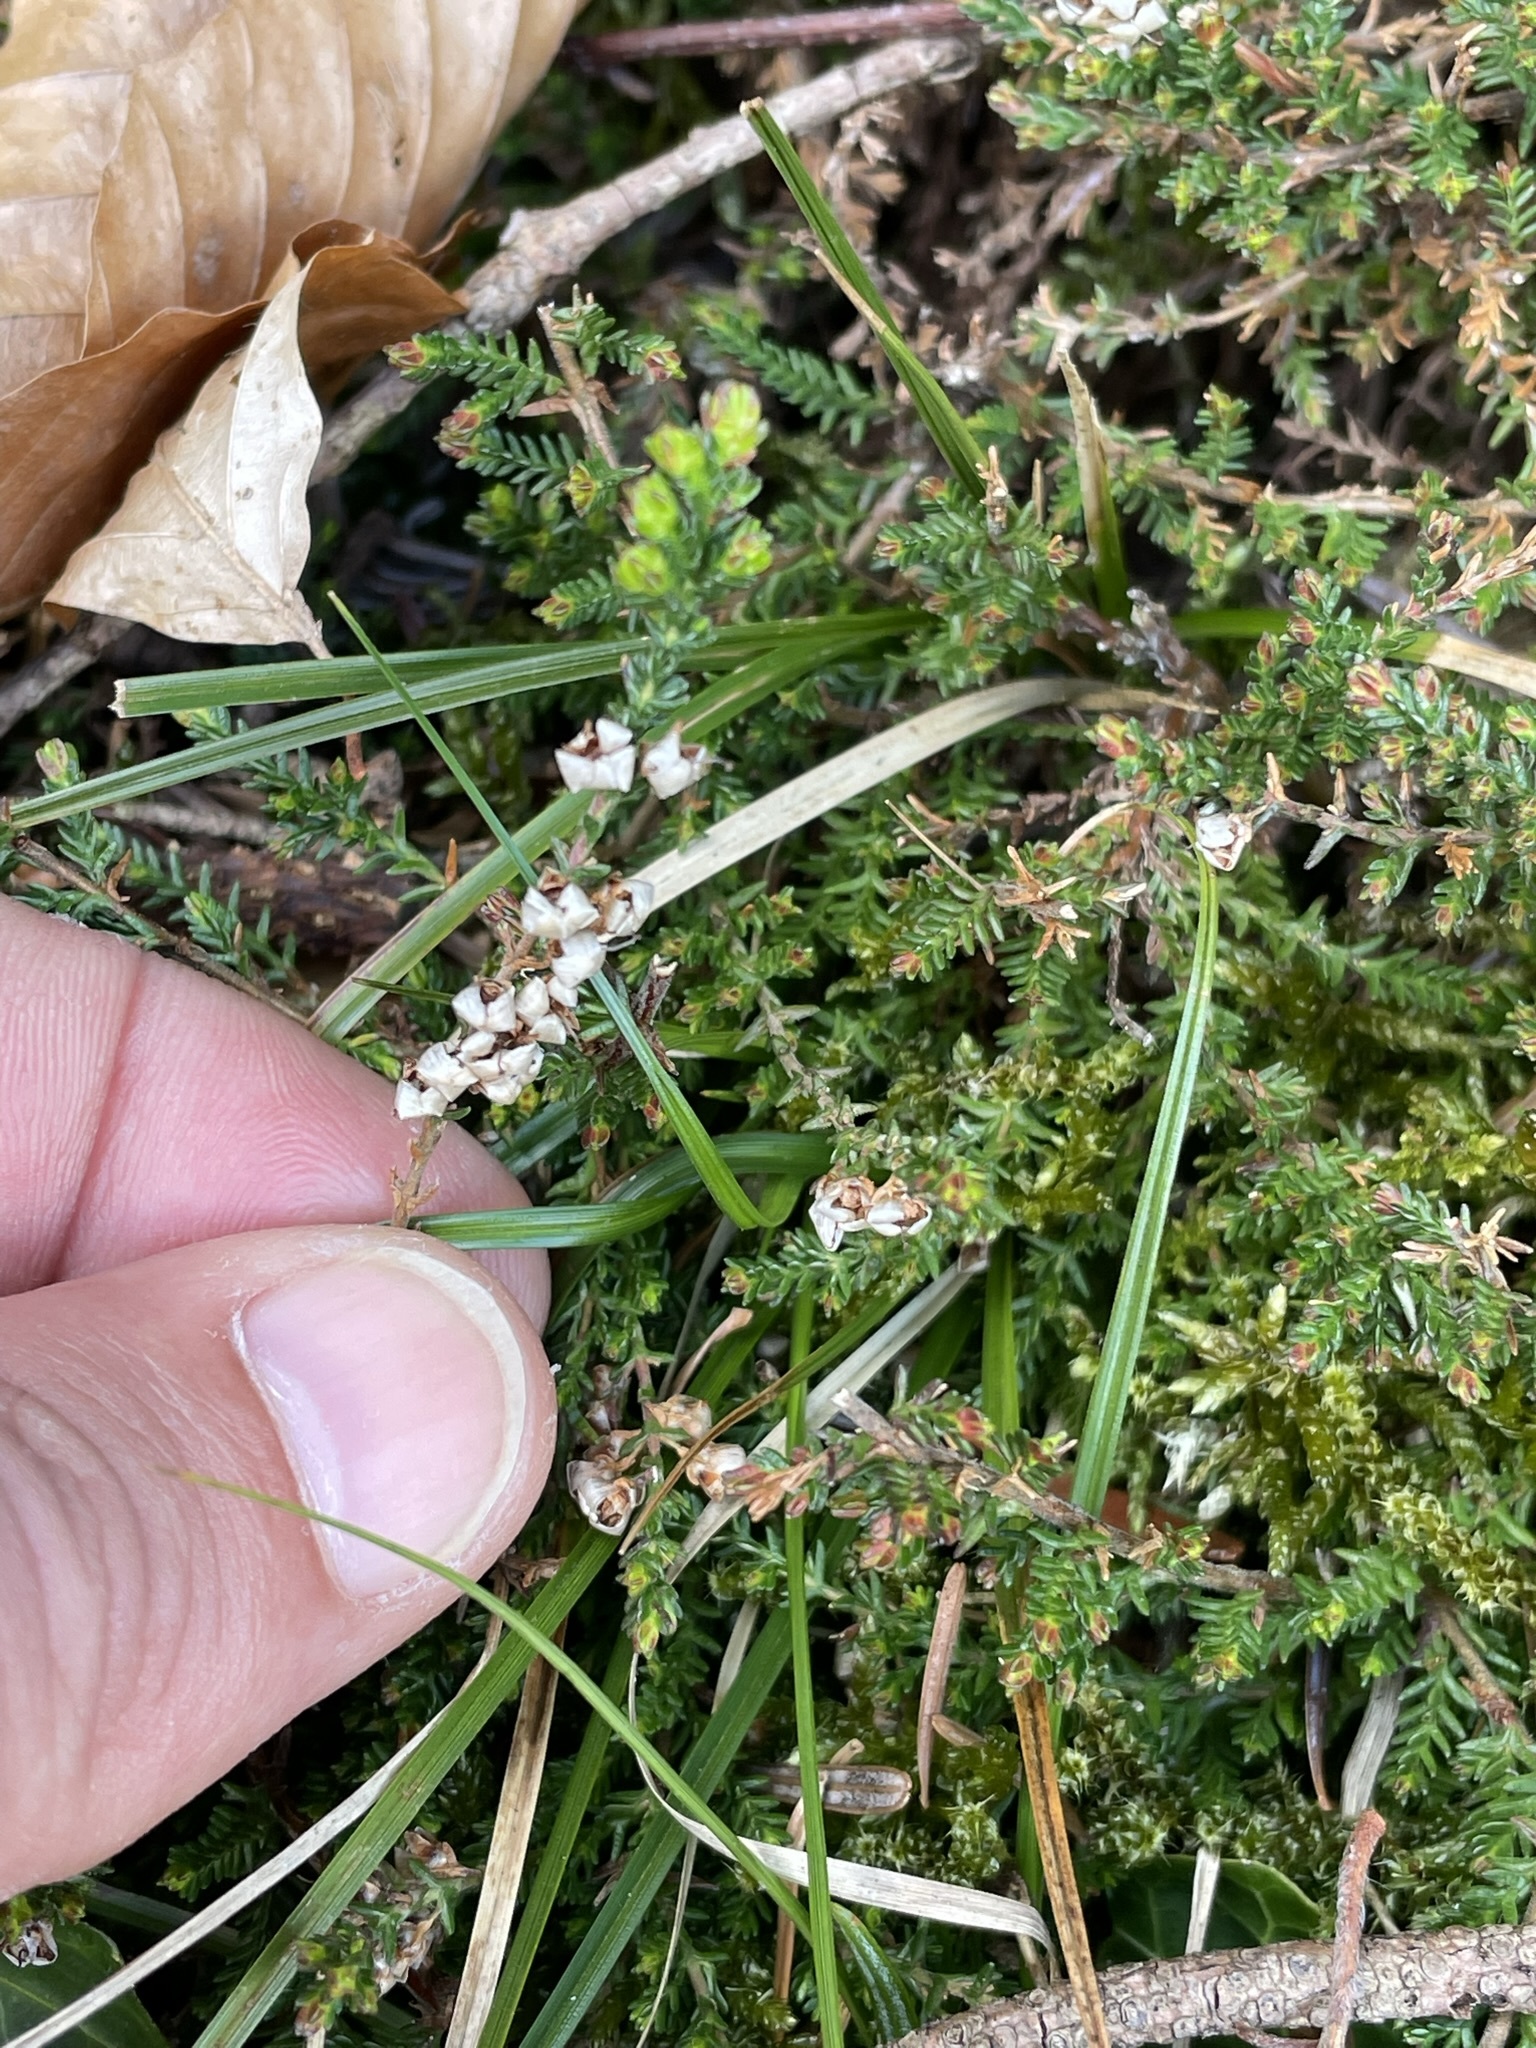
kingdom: Plantae
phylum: Tracheophyta
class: Magnoliopsida
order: Ericales
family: Ericaceae
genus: Calluna
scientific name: Calluna vulgaris
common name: Heather
